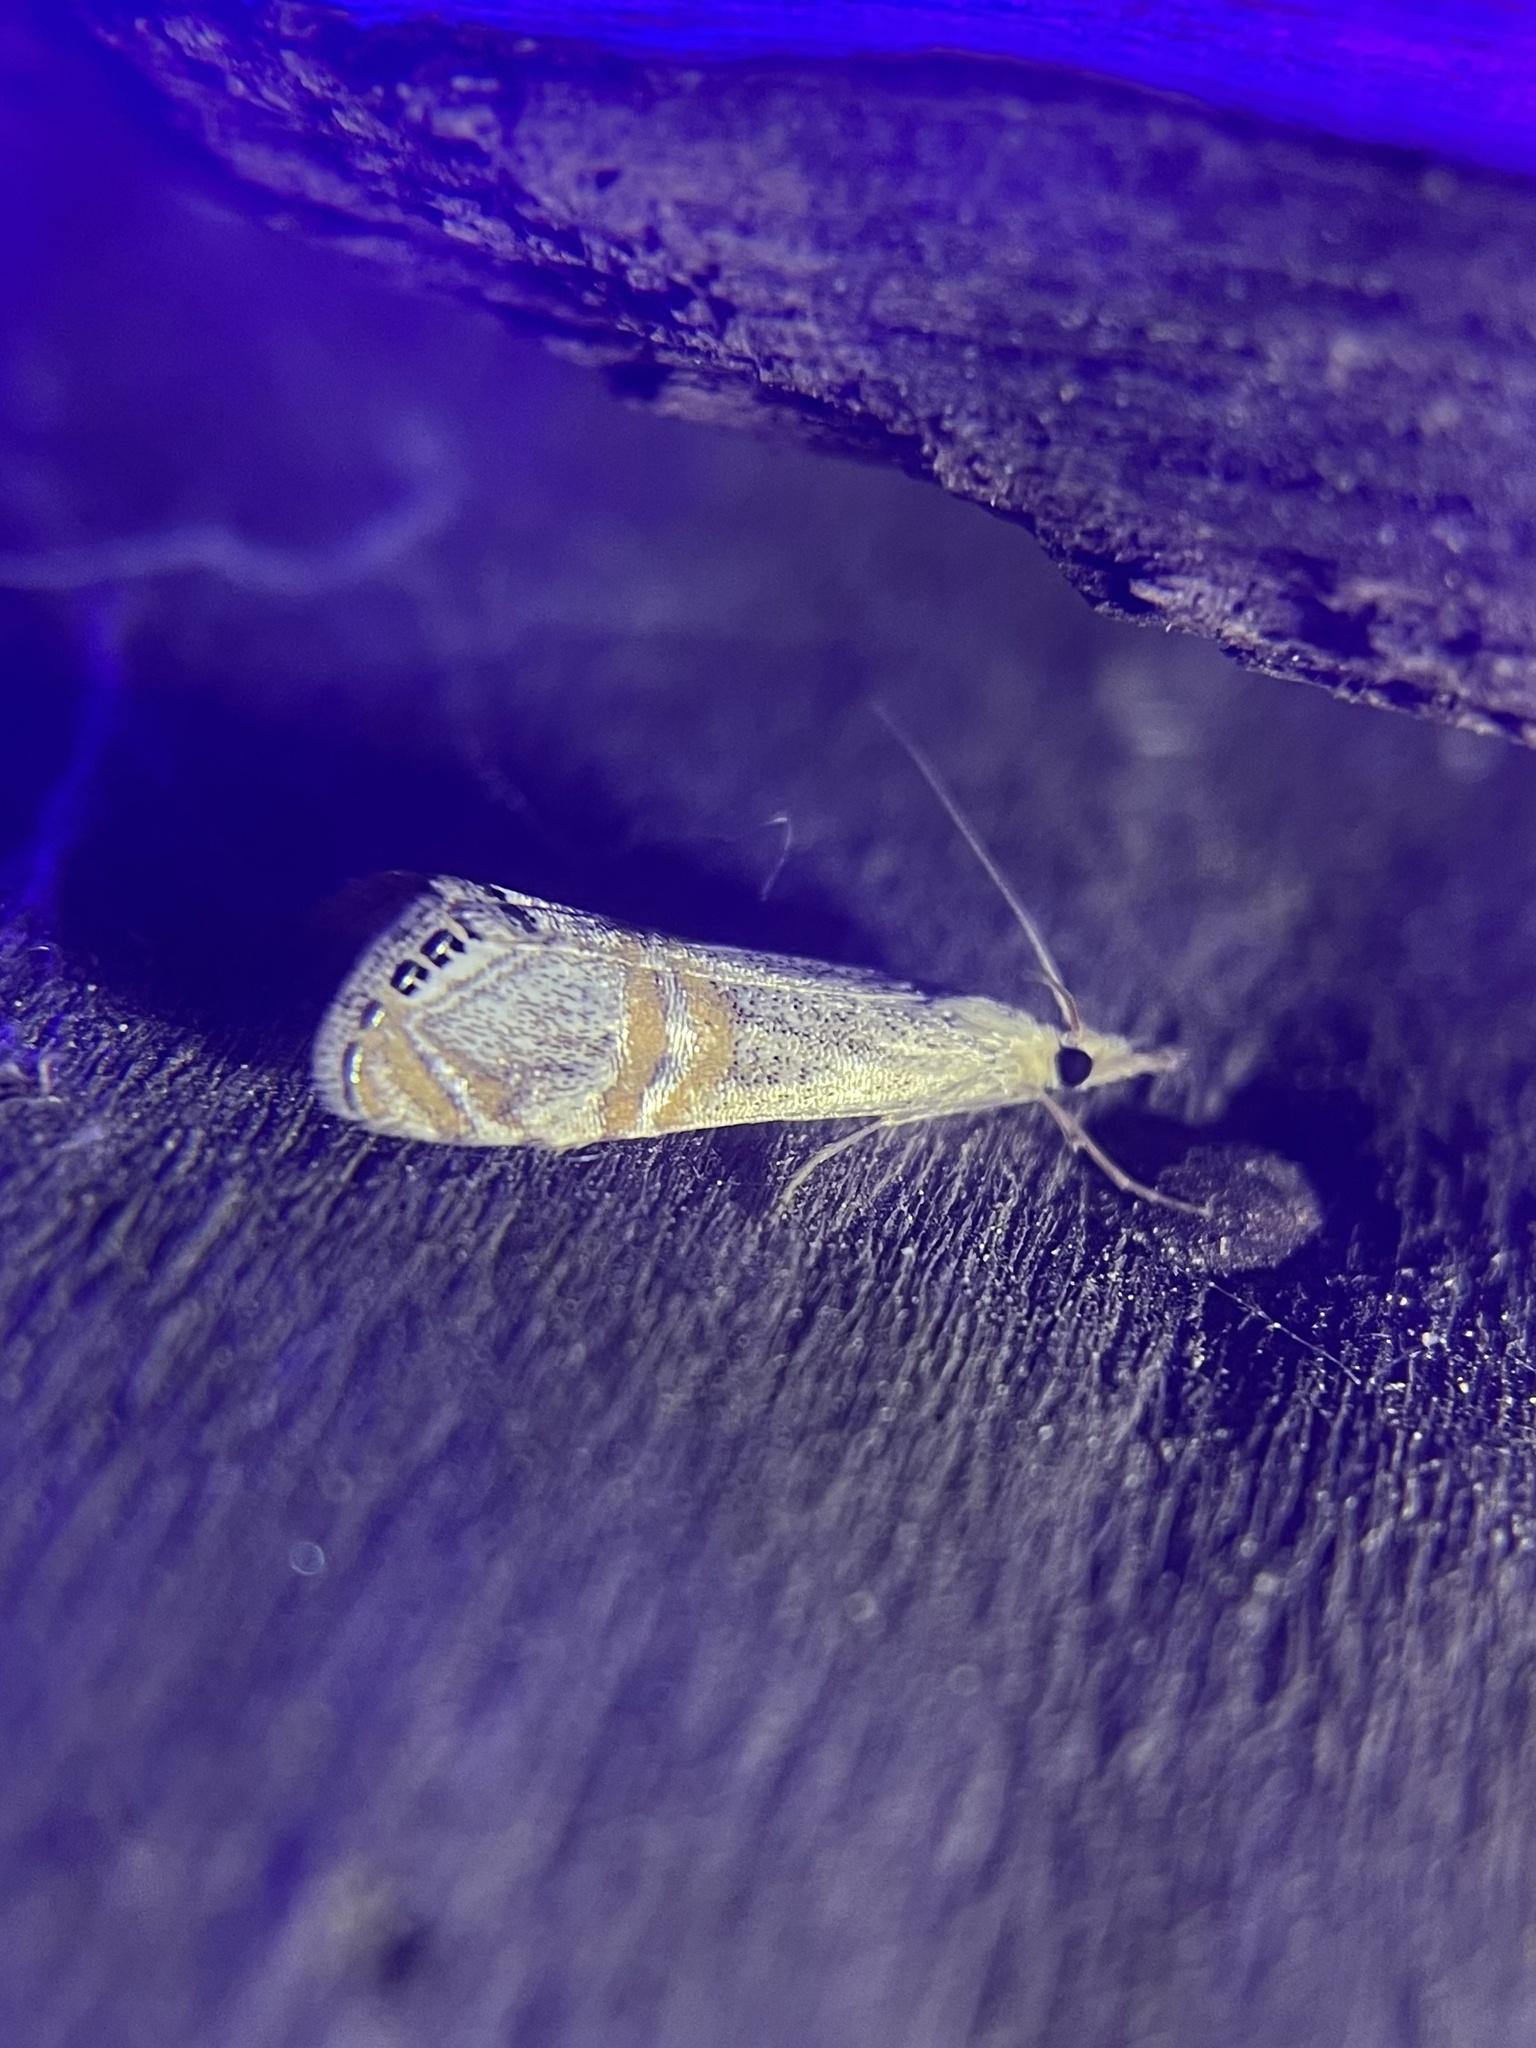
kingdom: Animalia
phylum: Arthropoda
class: Insecta
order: Lepidoptera
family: Crambidae
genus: Euchromius
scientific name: Euchromius ocellea
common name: Necklace veneer moth
